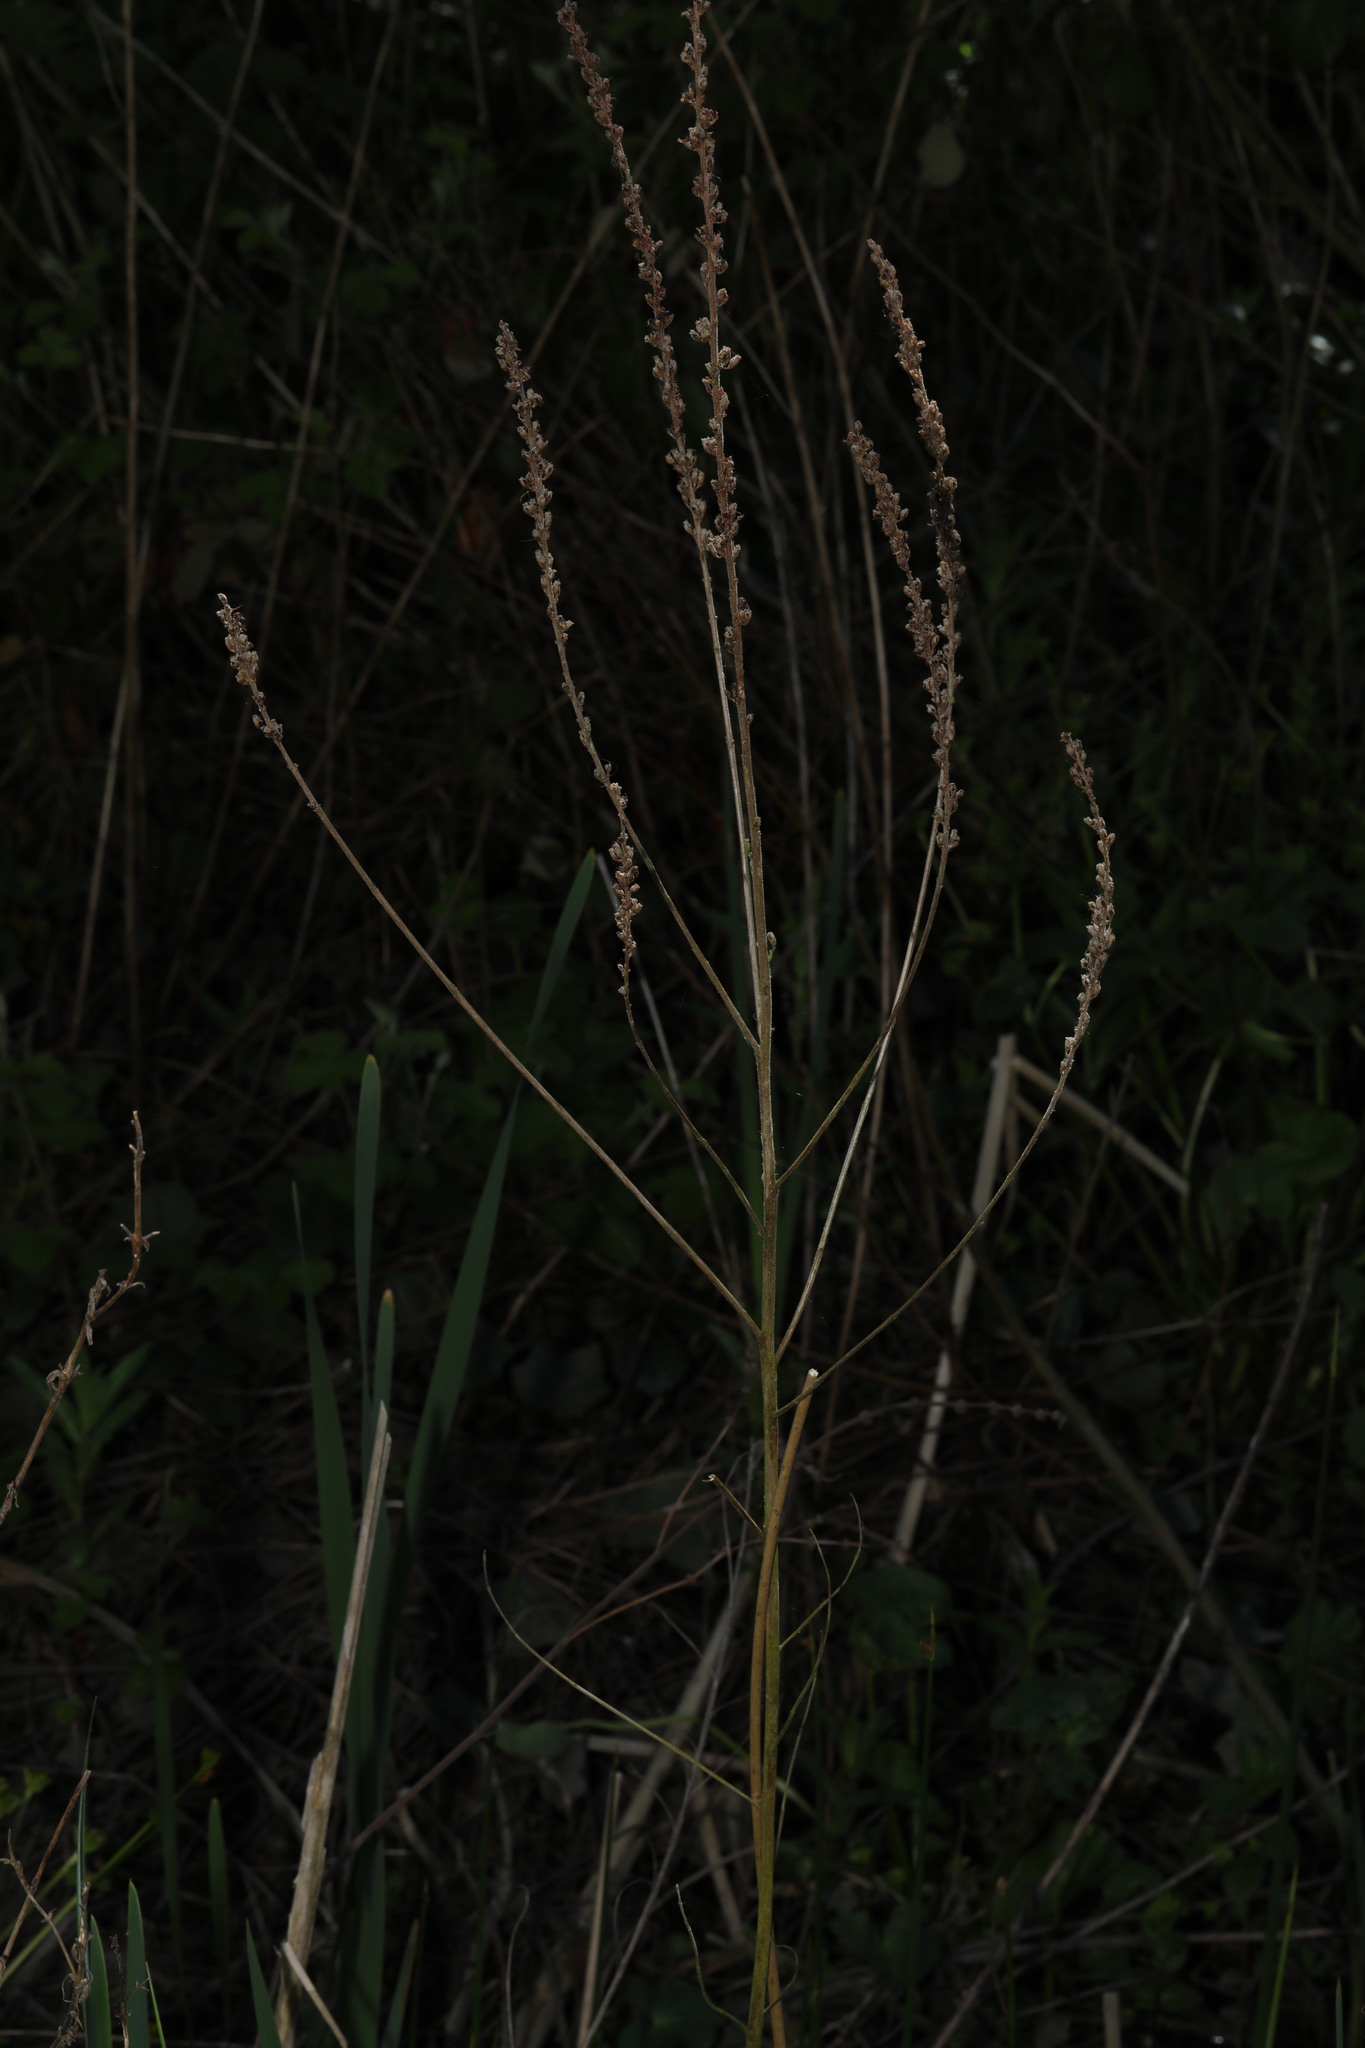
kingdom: Plantae
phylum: Tracheophyta
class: Magnoliopsida
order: Myrtales
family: Lythraceae
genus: Lythrum
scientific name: Lythrum salicaria
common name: Purple loosestrife
